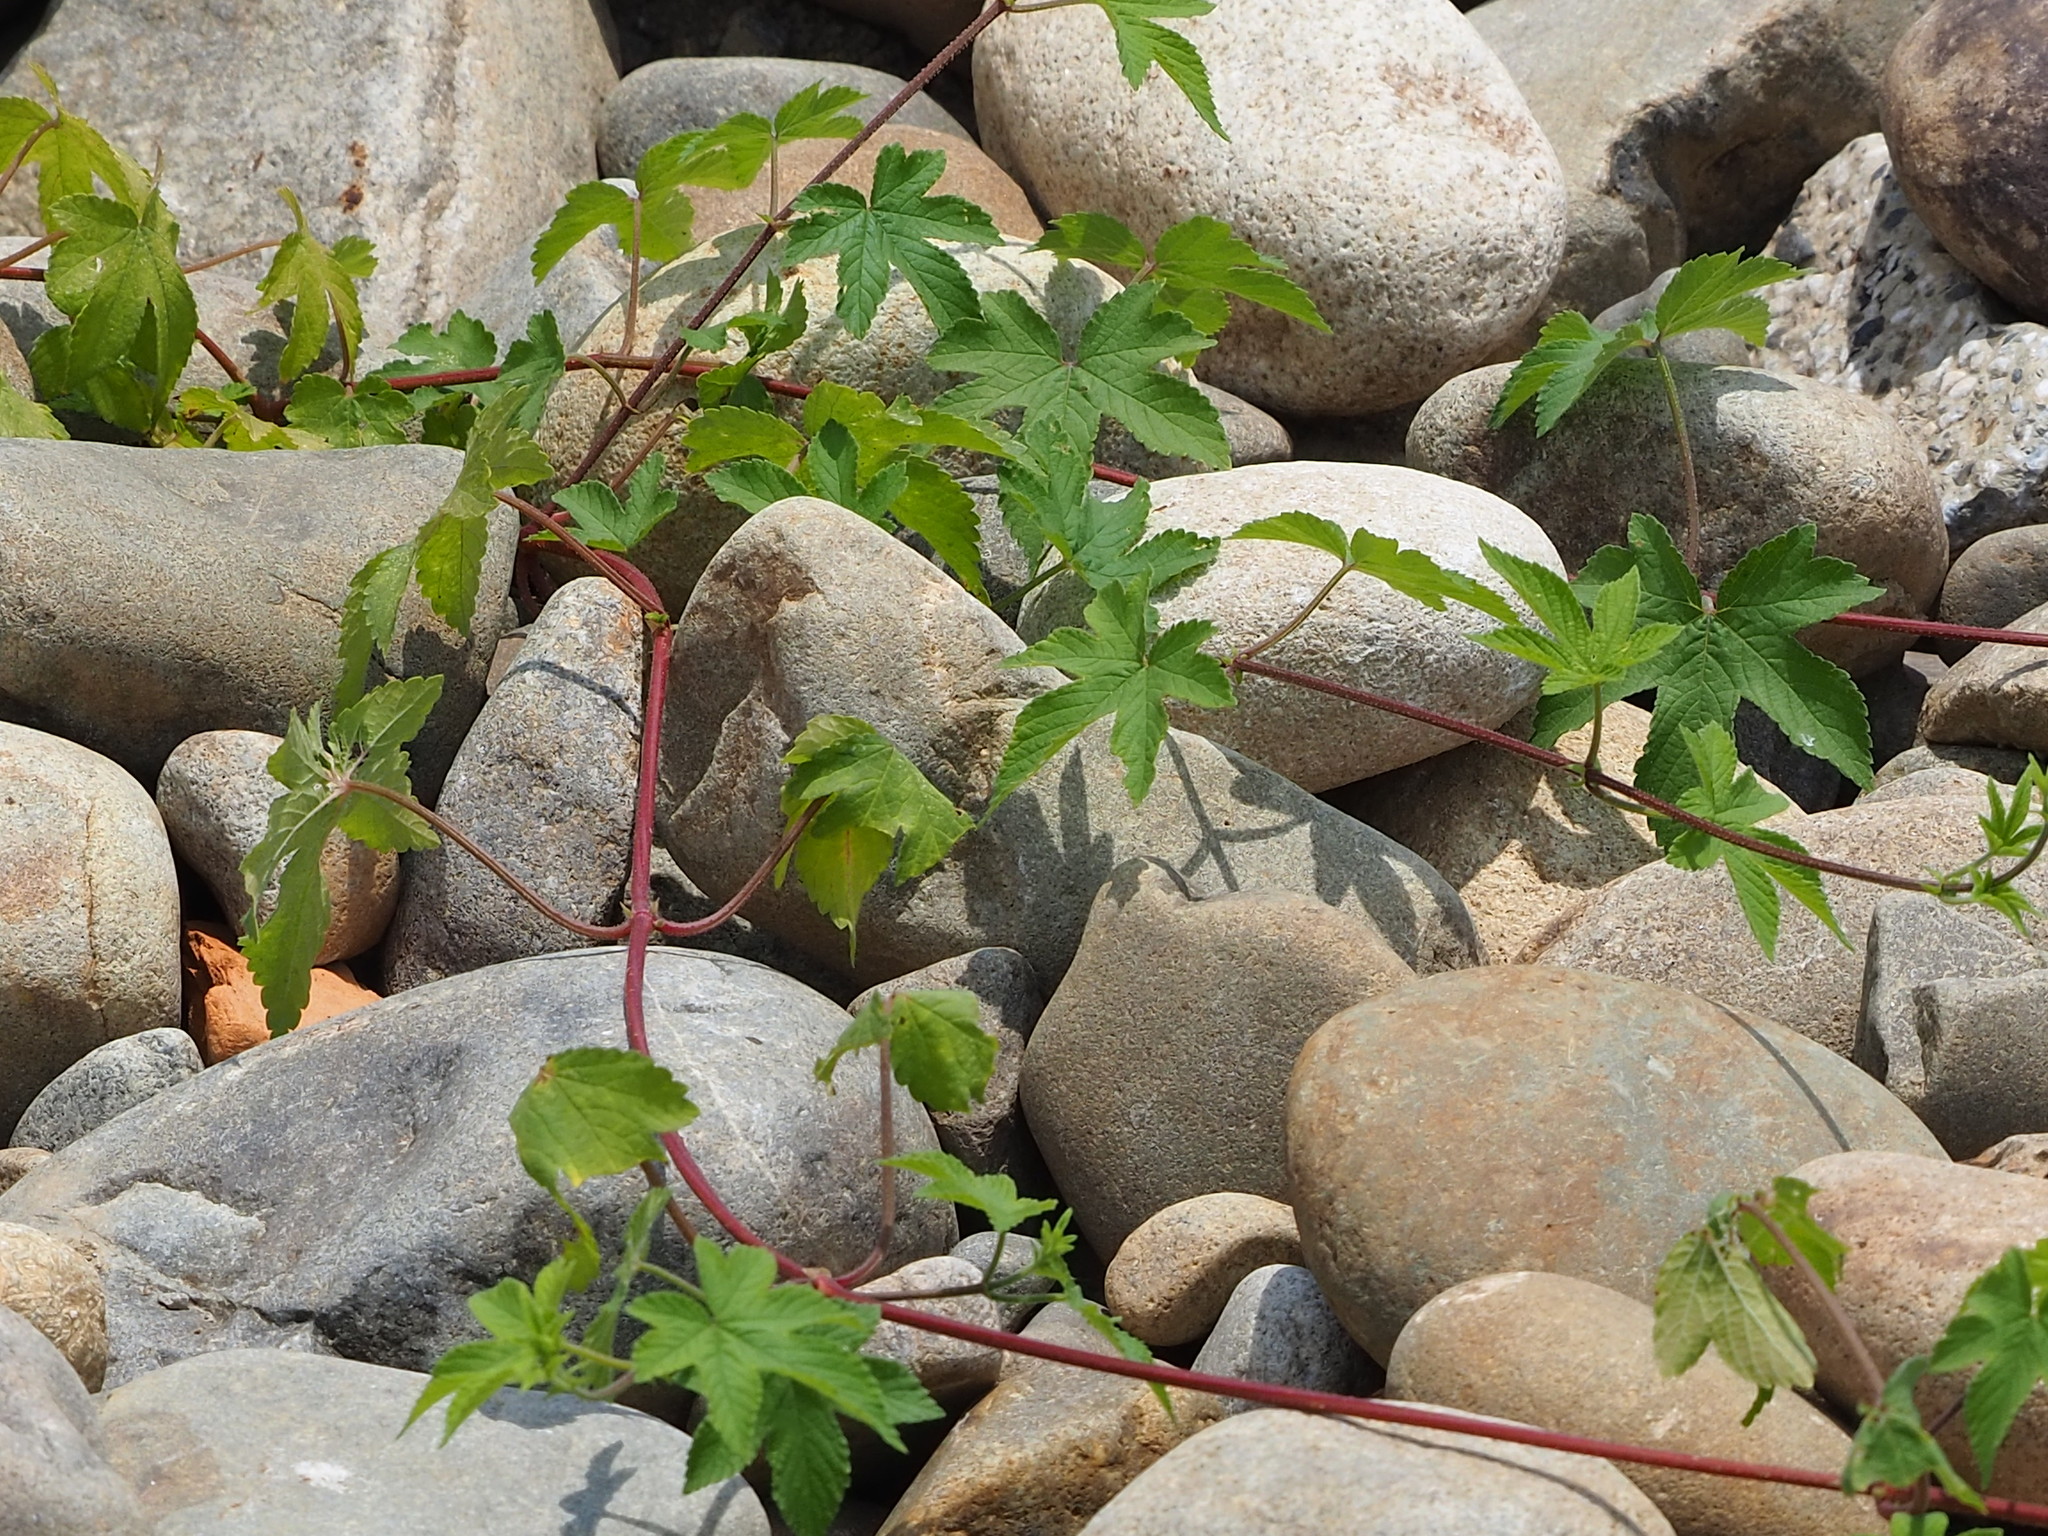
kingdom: Plantae
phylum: Tracheophyta
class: Magnoliopsida
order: Rosales
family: Cannabaceae
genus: Humulus
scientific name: Humulus scandens
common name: Japanese hop
